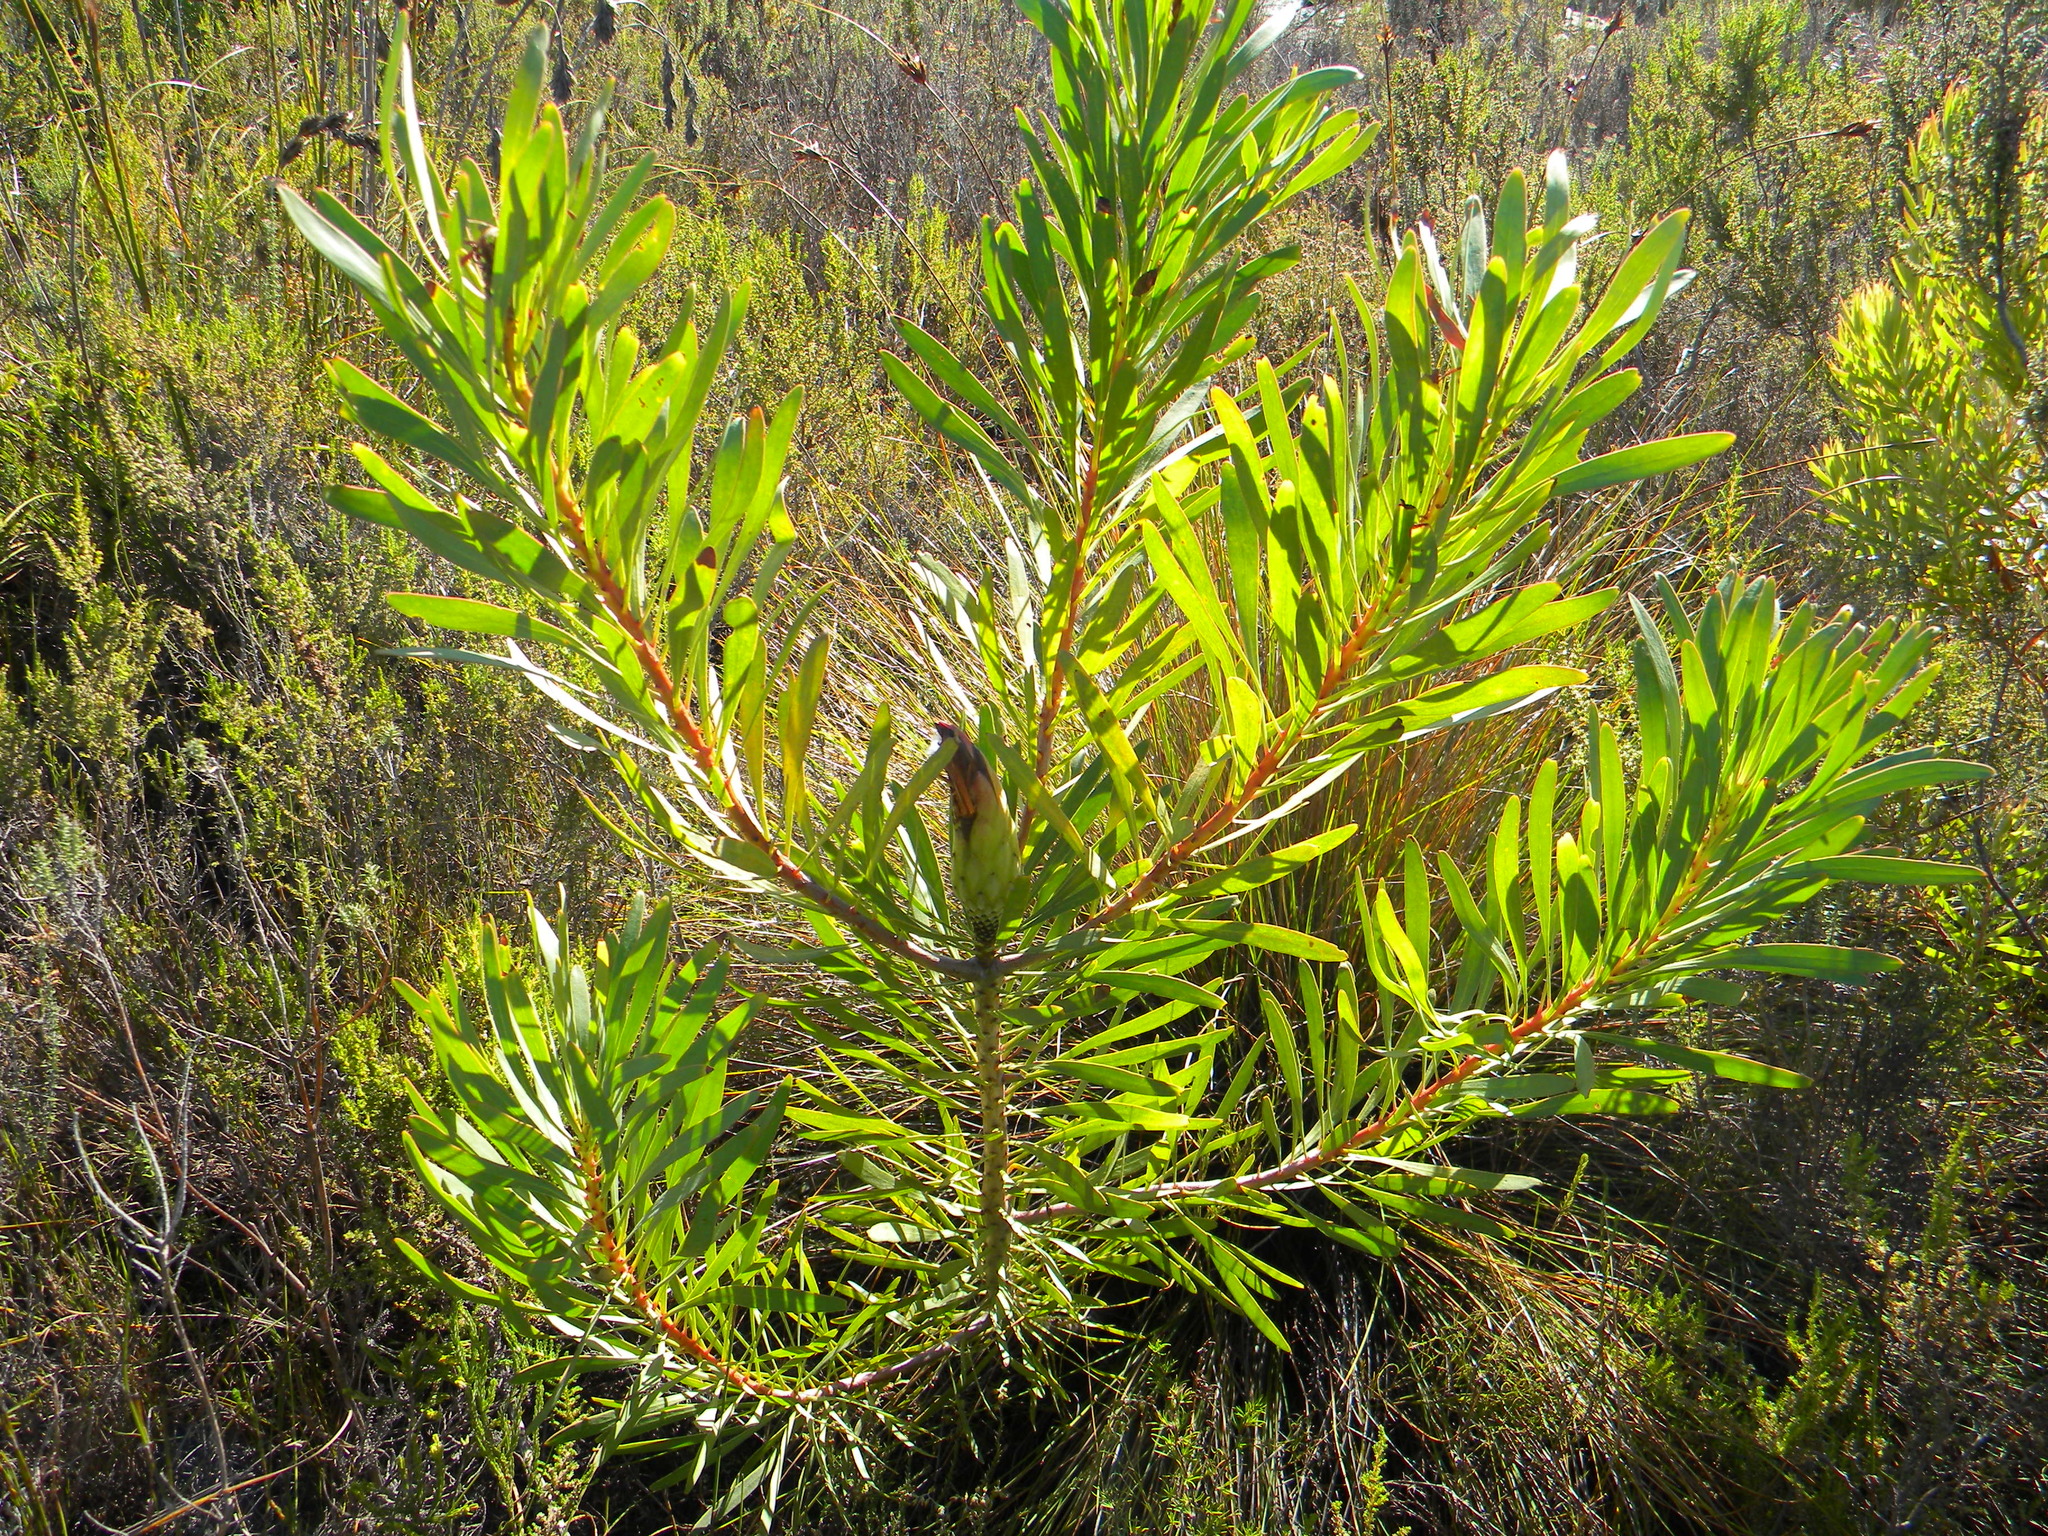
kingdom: Plantae
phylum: Tracheophyta
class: Magnoliopsida
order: Proteales
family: Proteaceae
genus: Protea
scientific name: Protea repens
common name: Sugarbush
